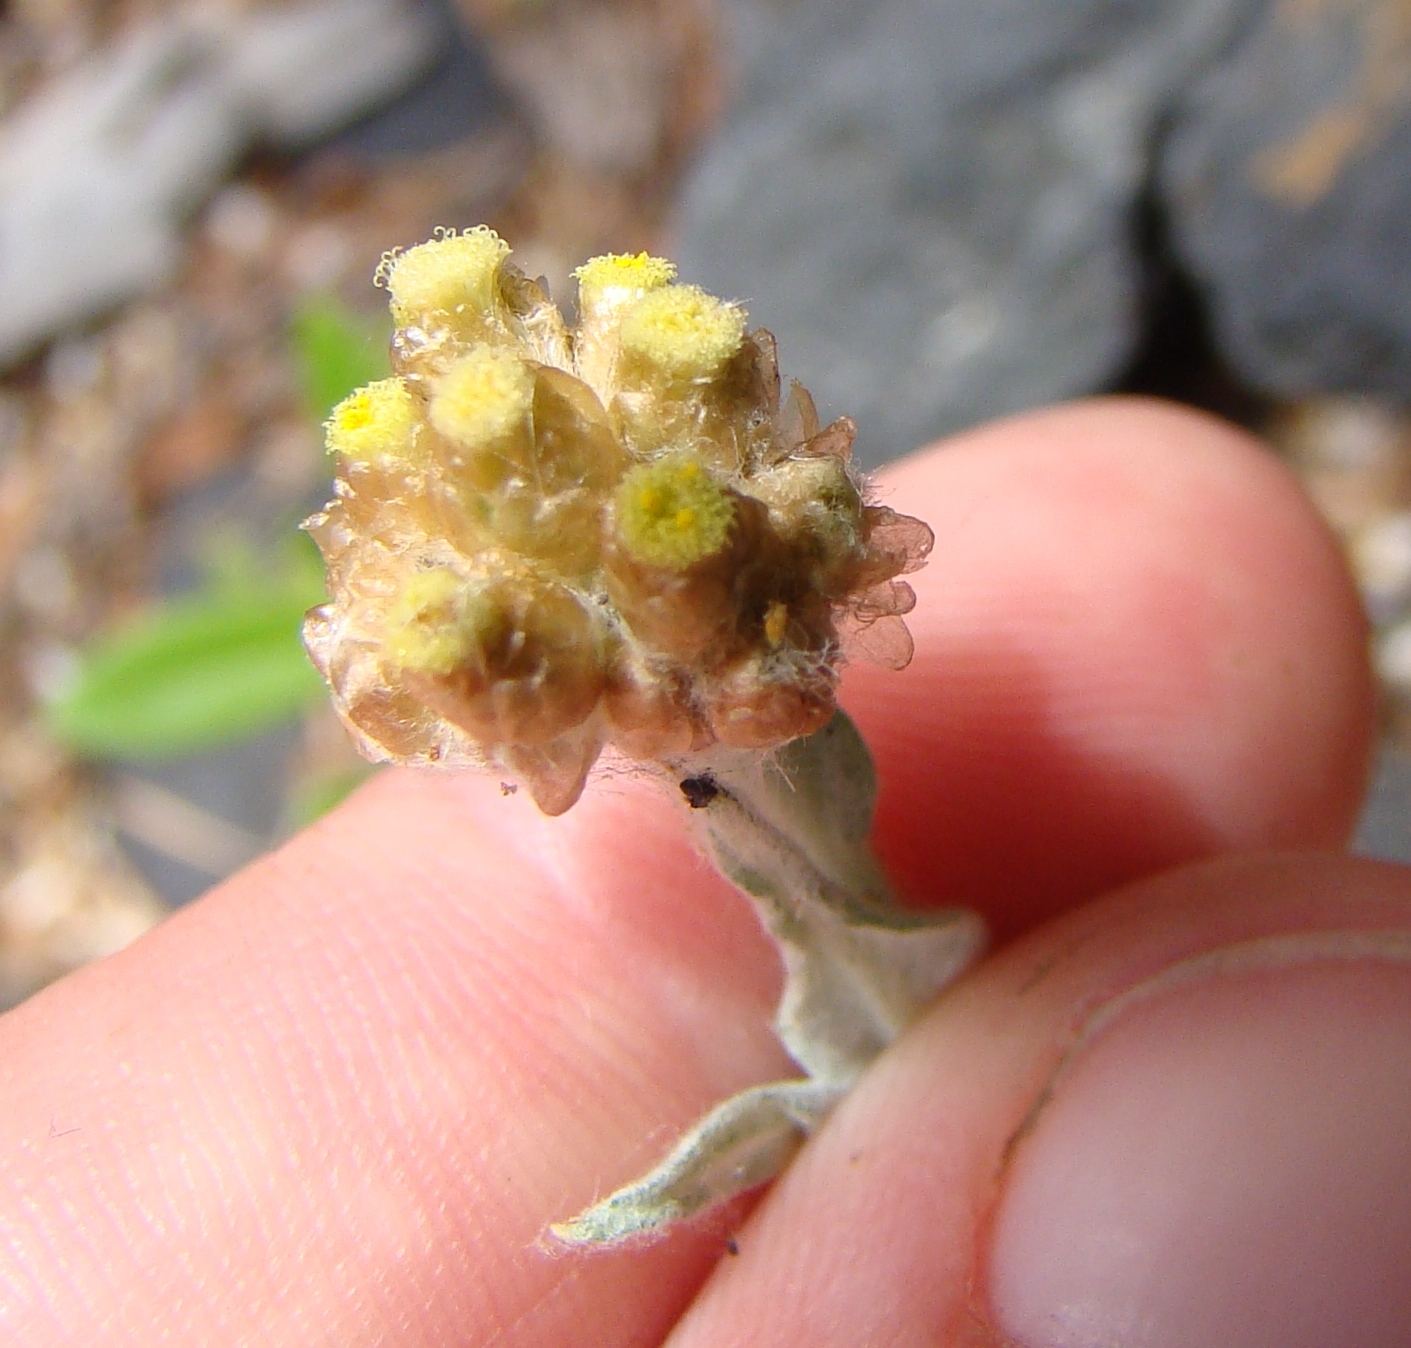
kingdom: Plantae
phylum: Tracheophyta
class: Magnoliopsida
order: Asterales
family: Asteraceae
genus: Helichrysum
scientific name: Helichrysum luteoalbum
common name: Daisy
